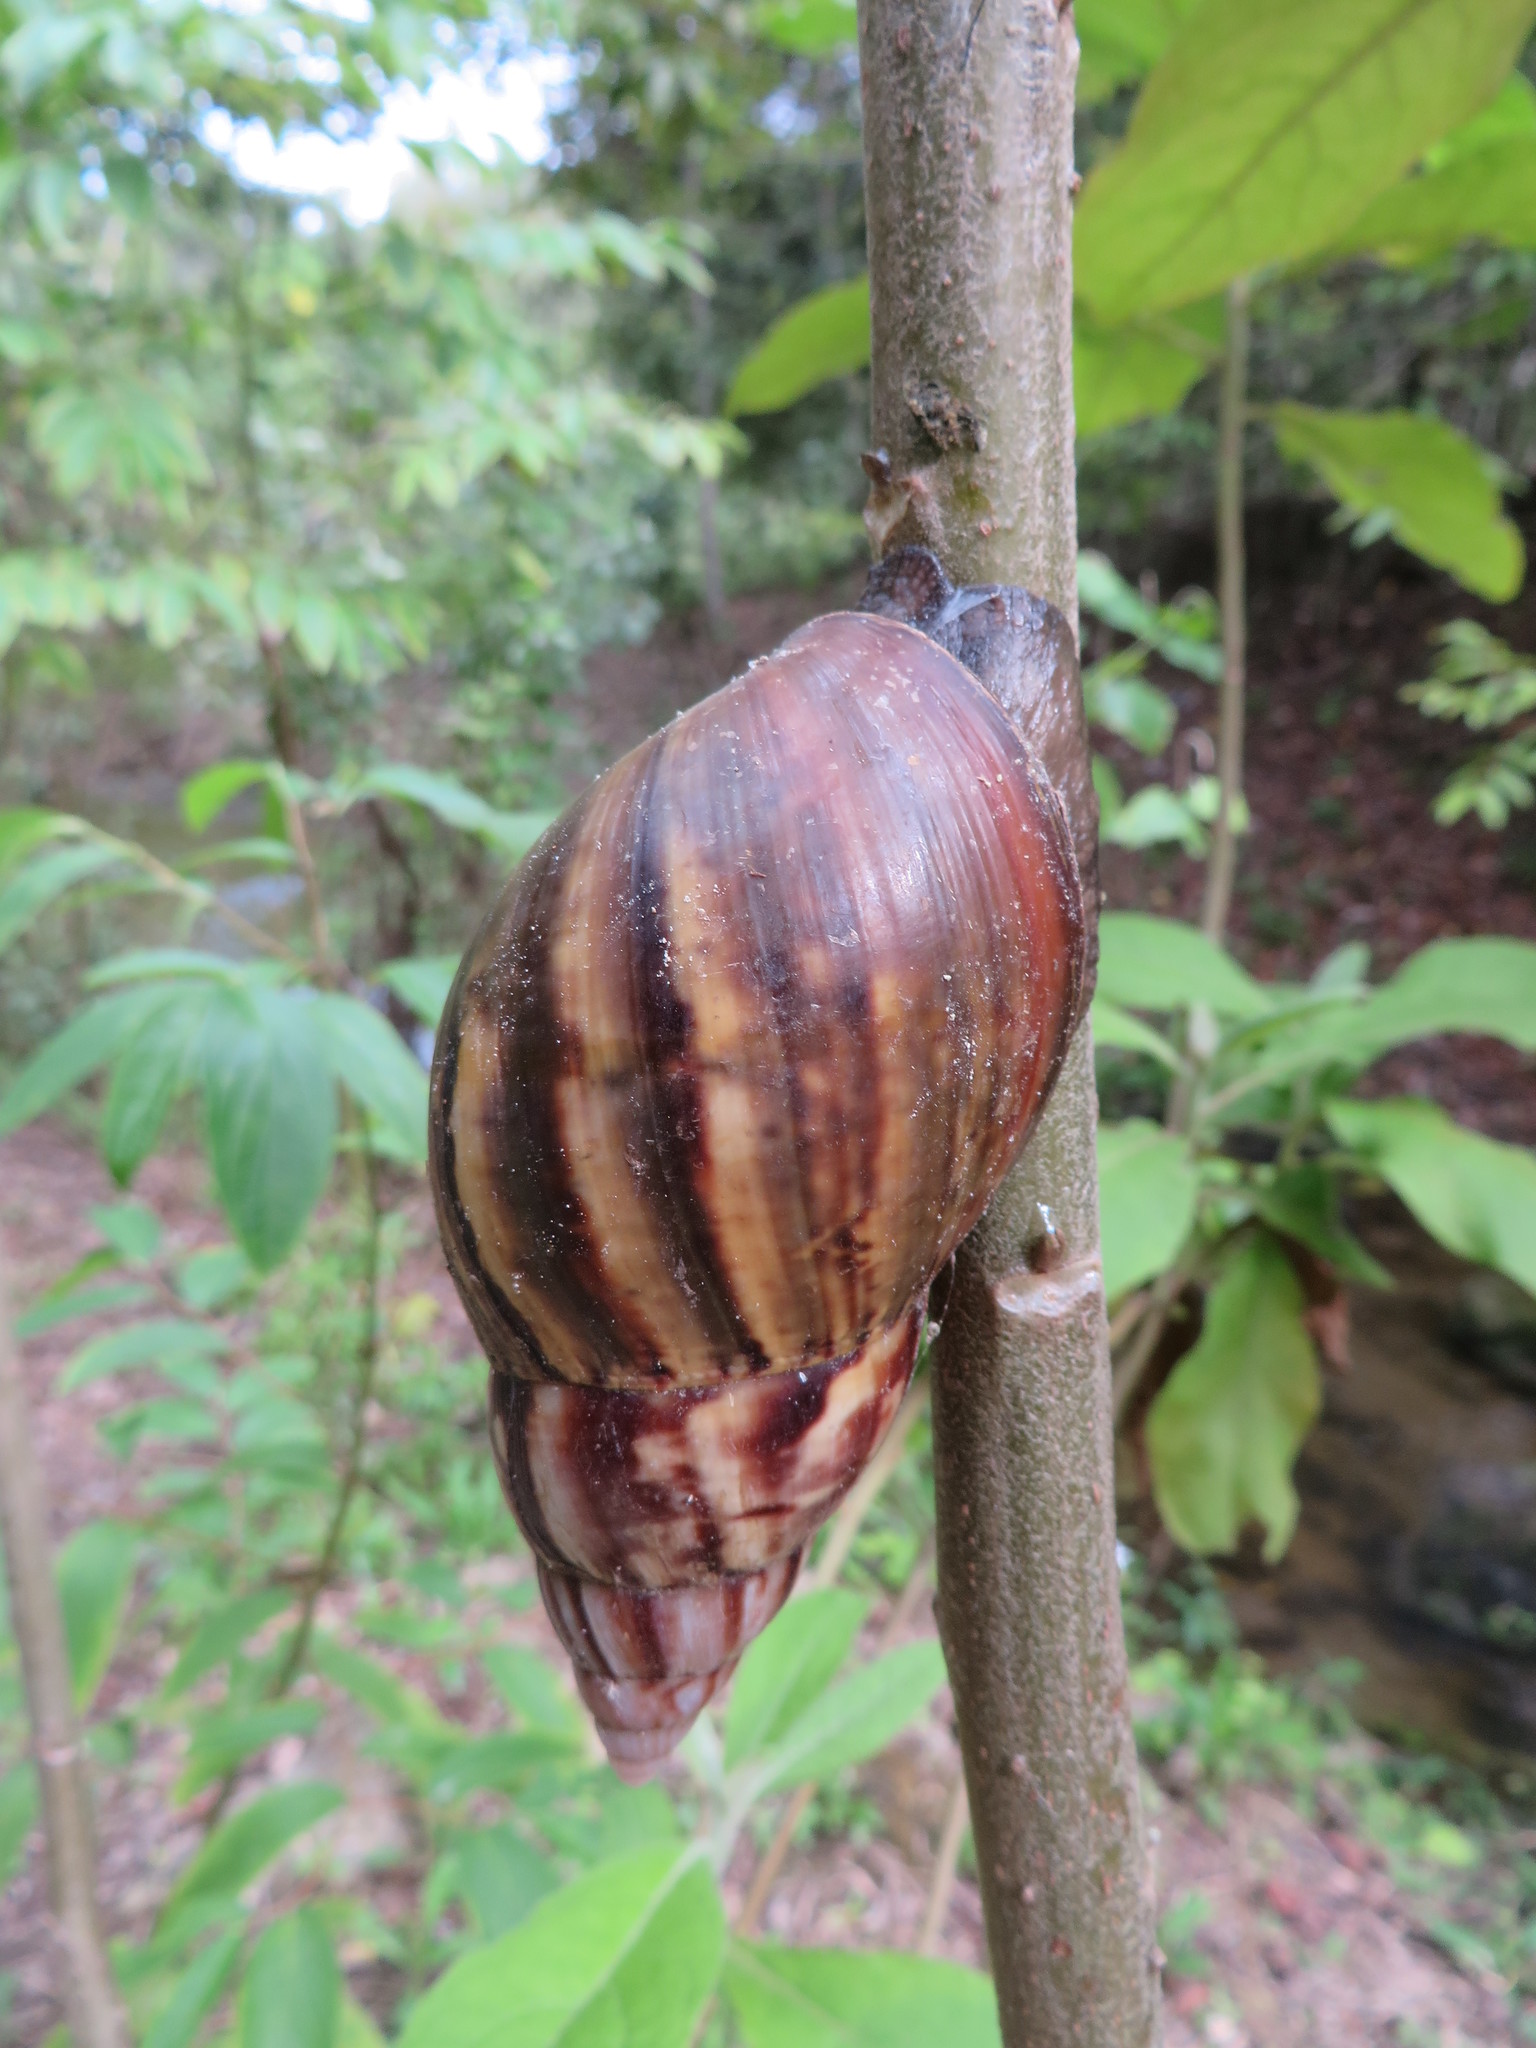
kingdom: Animalia
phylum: Mollusca
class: Gastropoda
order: Stylommatophora
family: Achatinidae
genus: Lissachatina
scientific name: Lissachatina fulica
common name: Giant african snail
